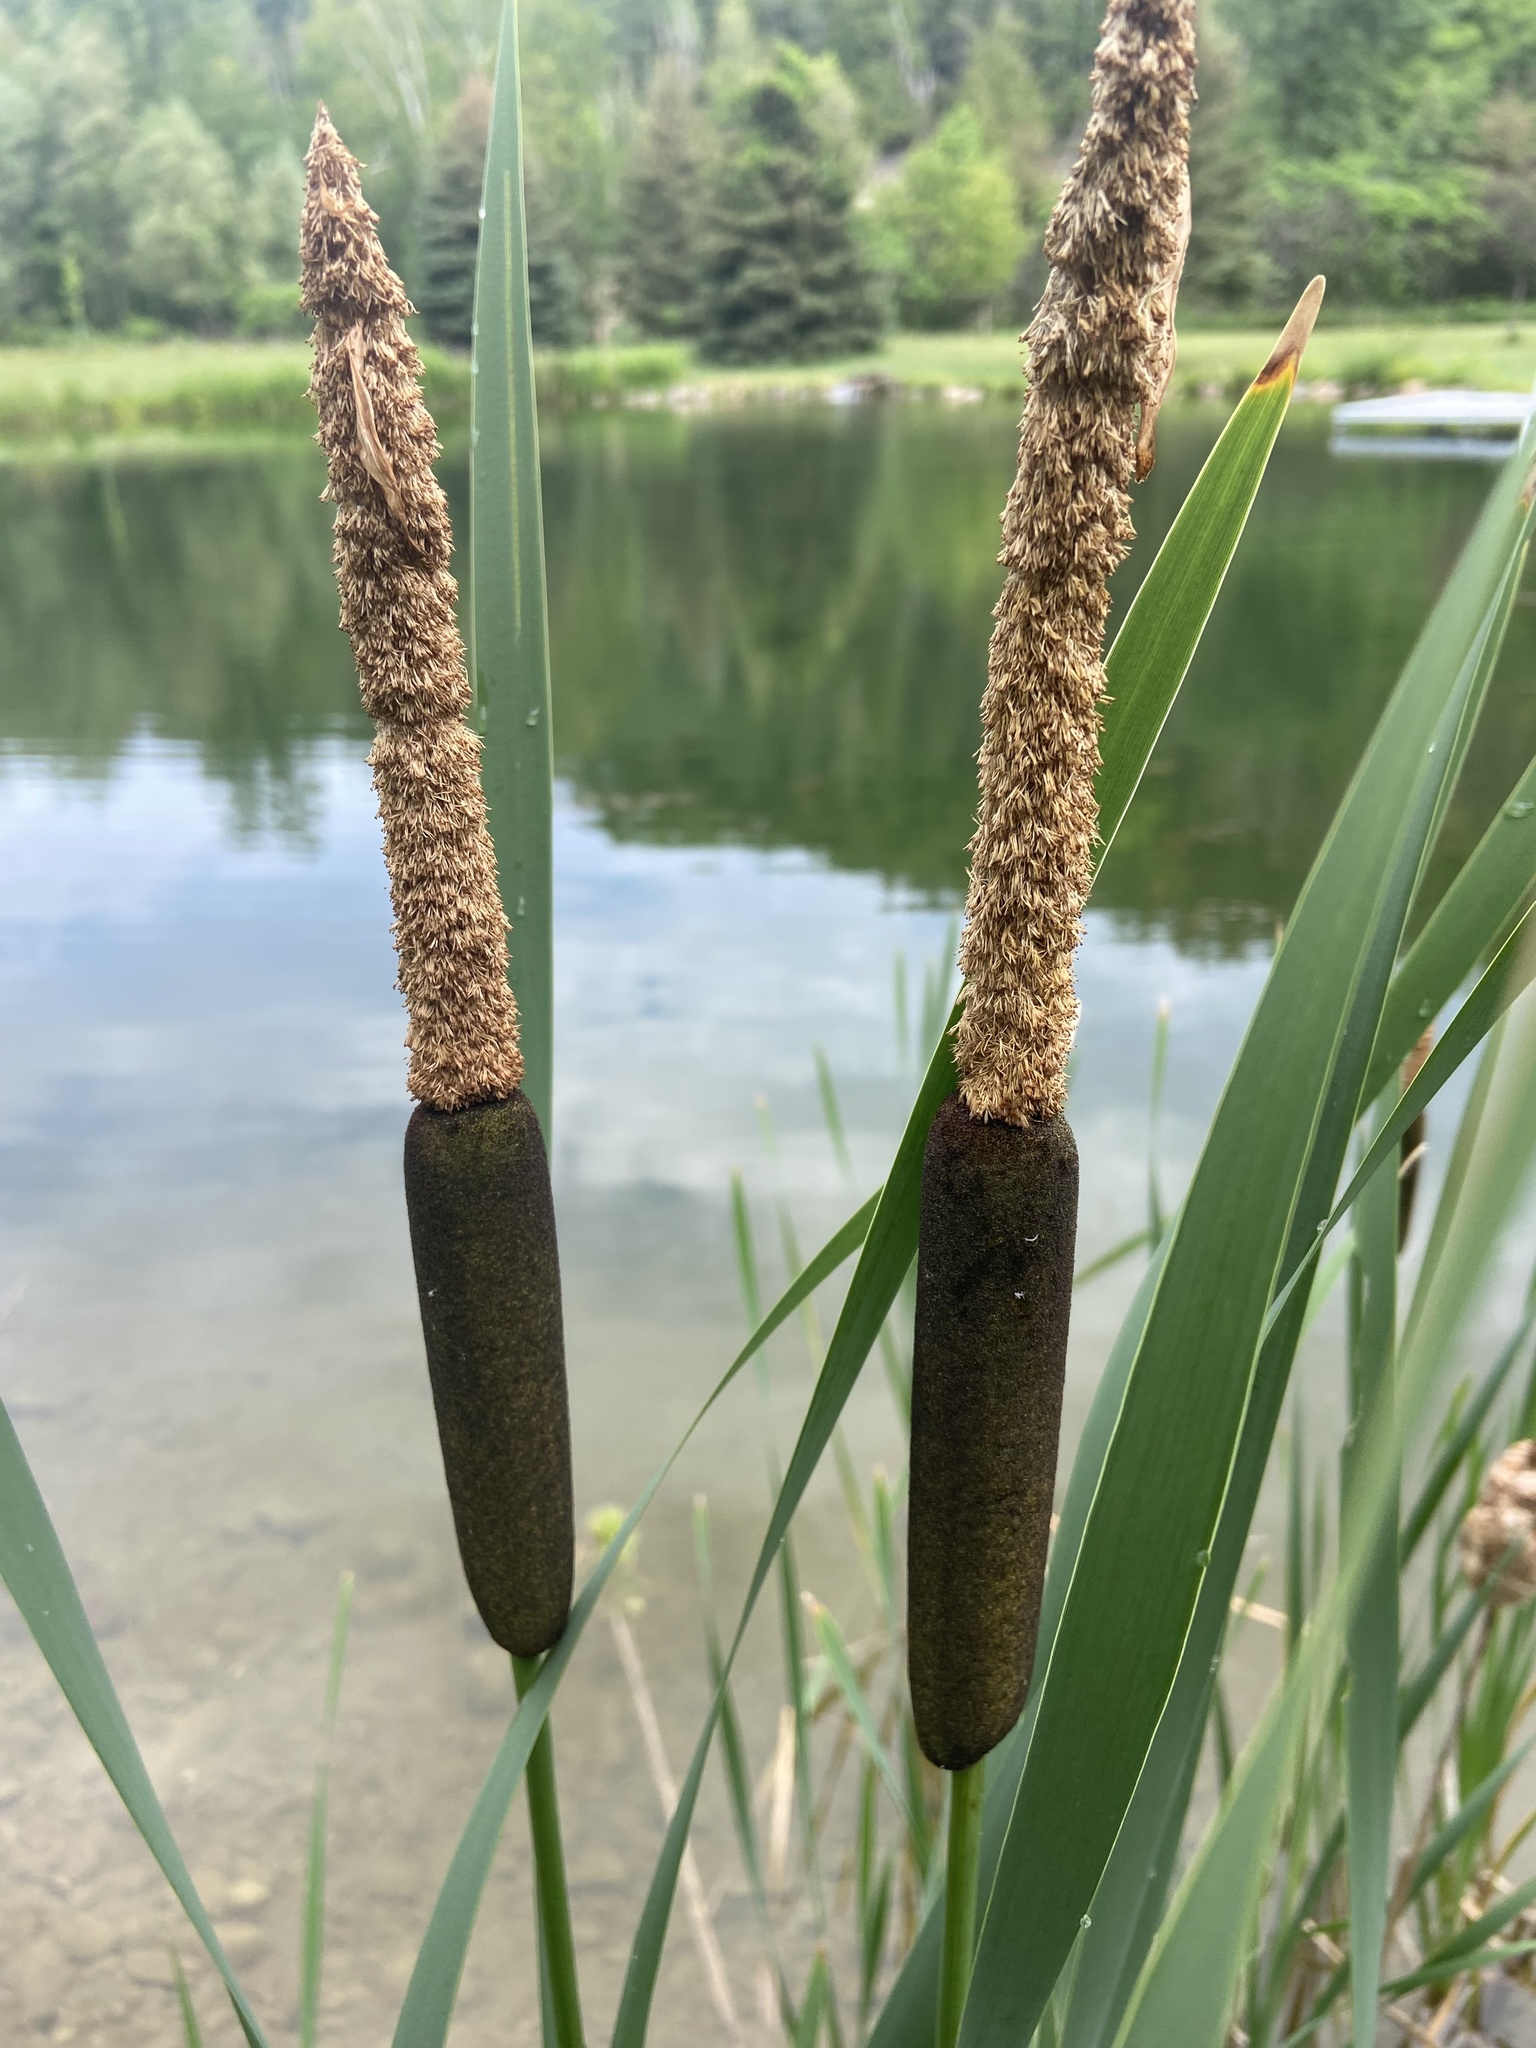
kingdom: Plantae
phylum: Tracheophyta
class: Liliopsida
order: Poales
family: Typhaceae
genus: Typha
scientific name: Typha latifolia
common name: Broadleaf cattail
